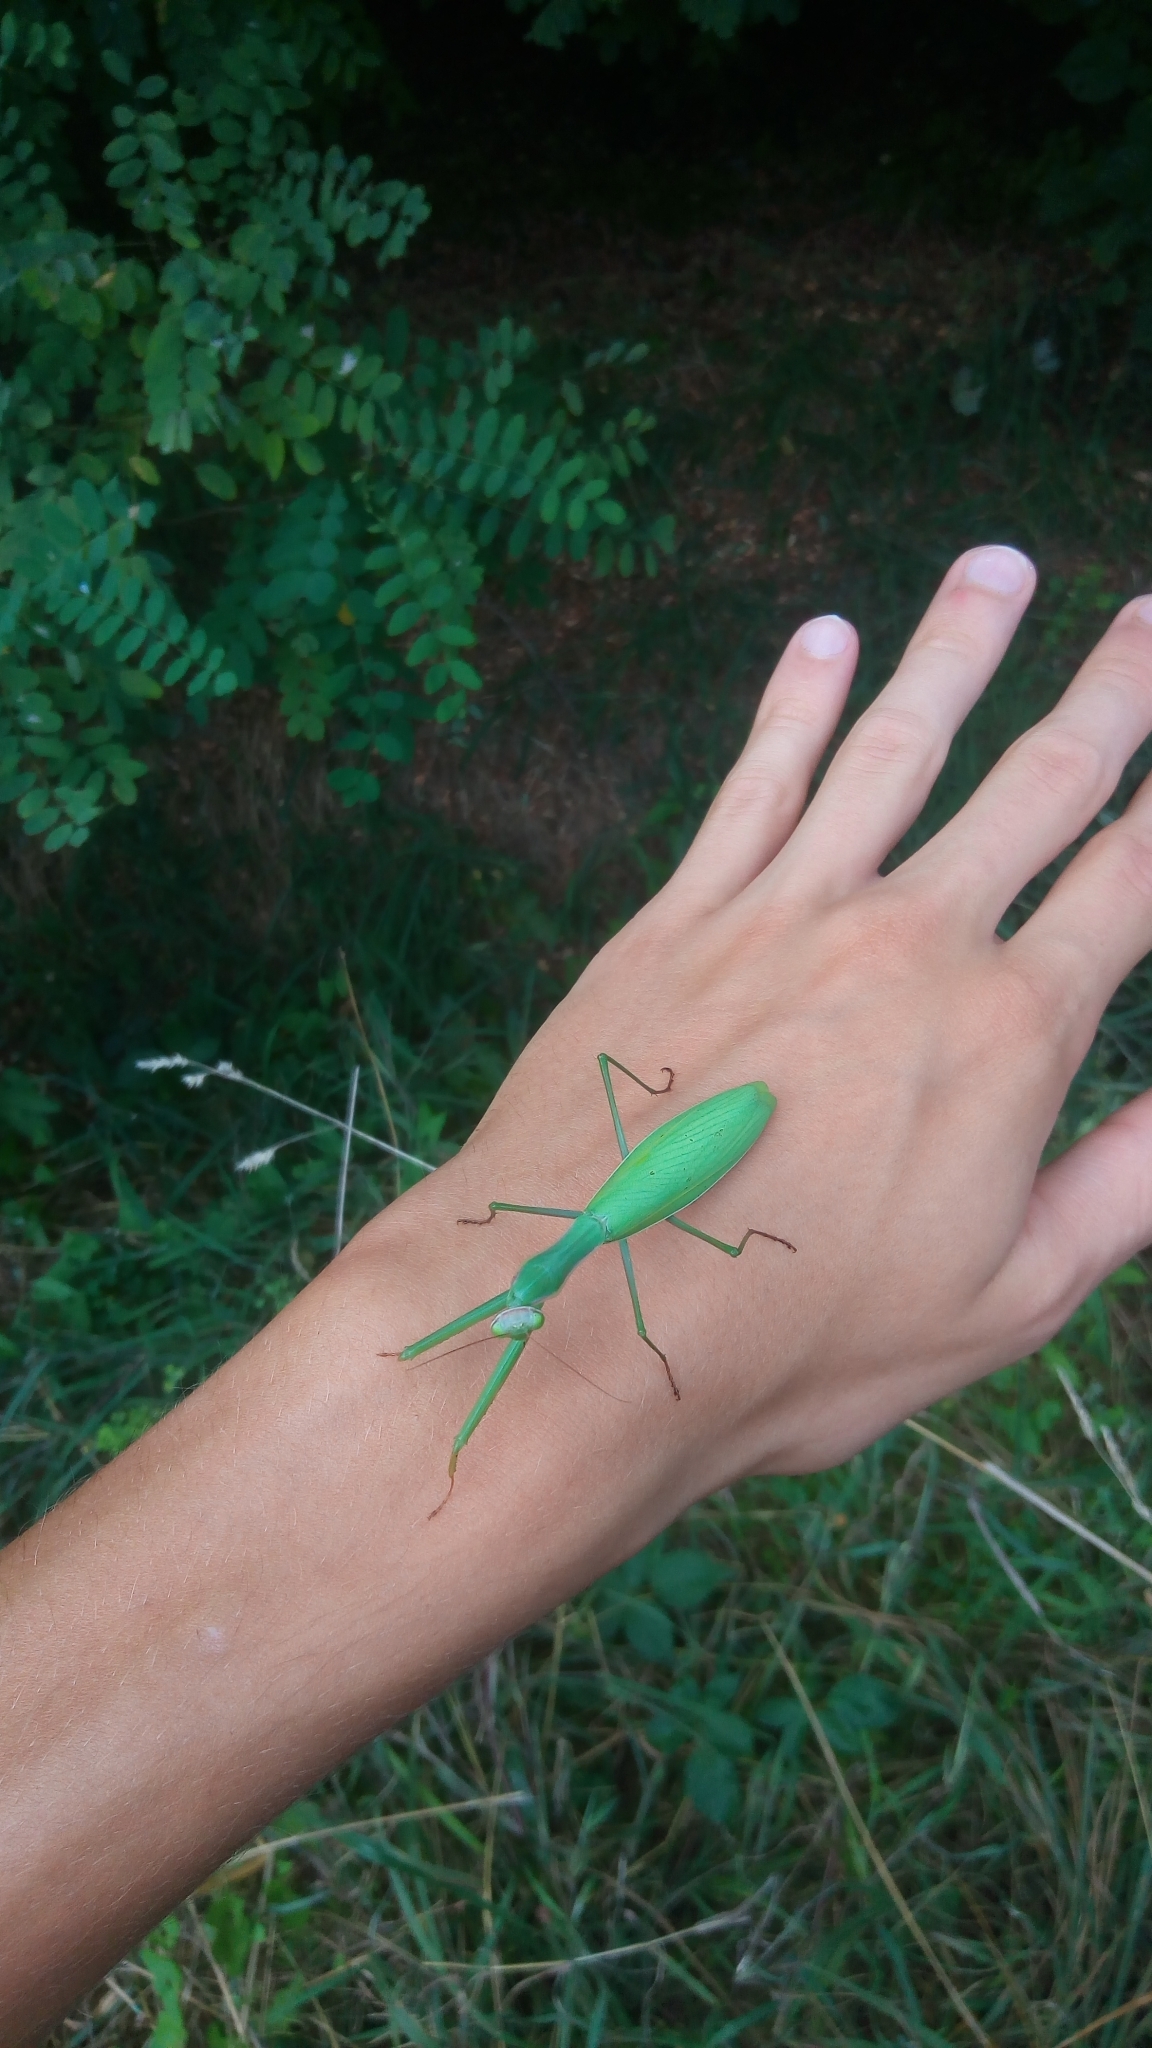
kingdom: Animalia
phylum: Arthropoda
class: Insecta
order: Mantodea
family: Mantidae
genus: Mantis
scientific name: Mantis religiosa
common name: Praying mantis
